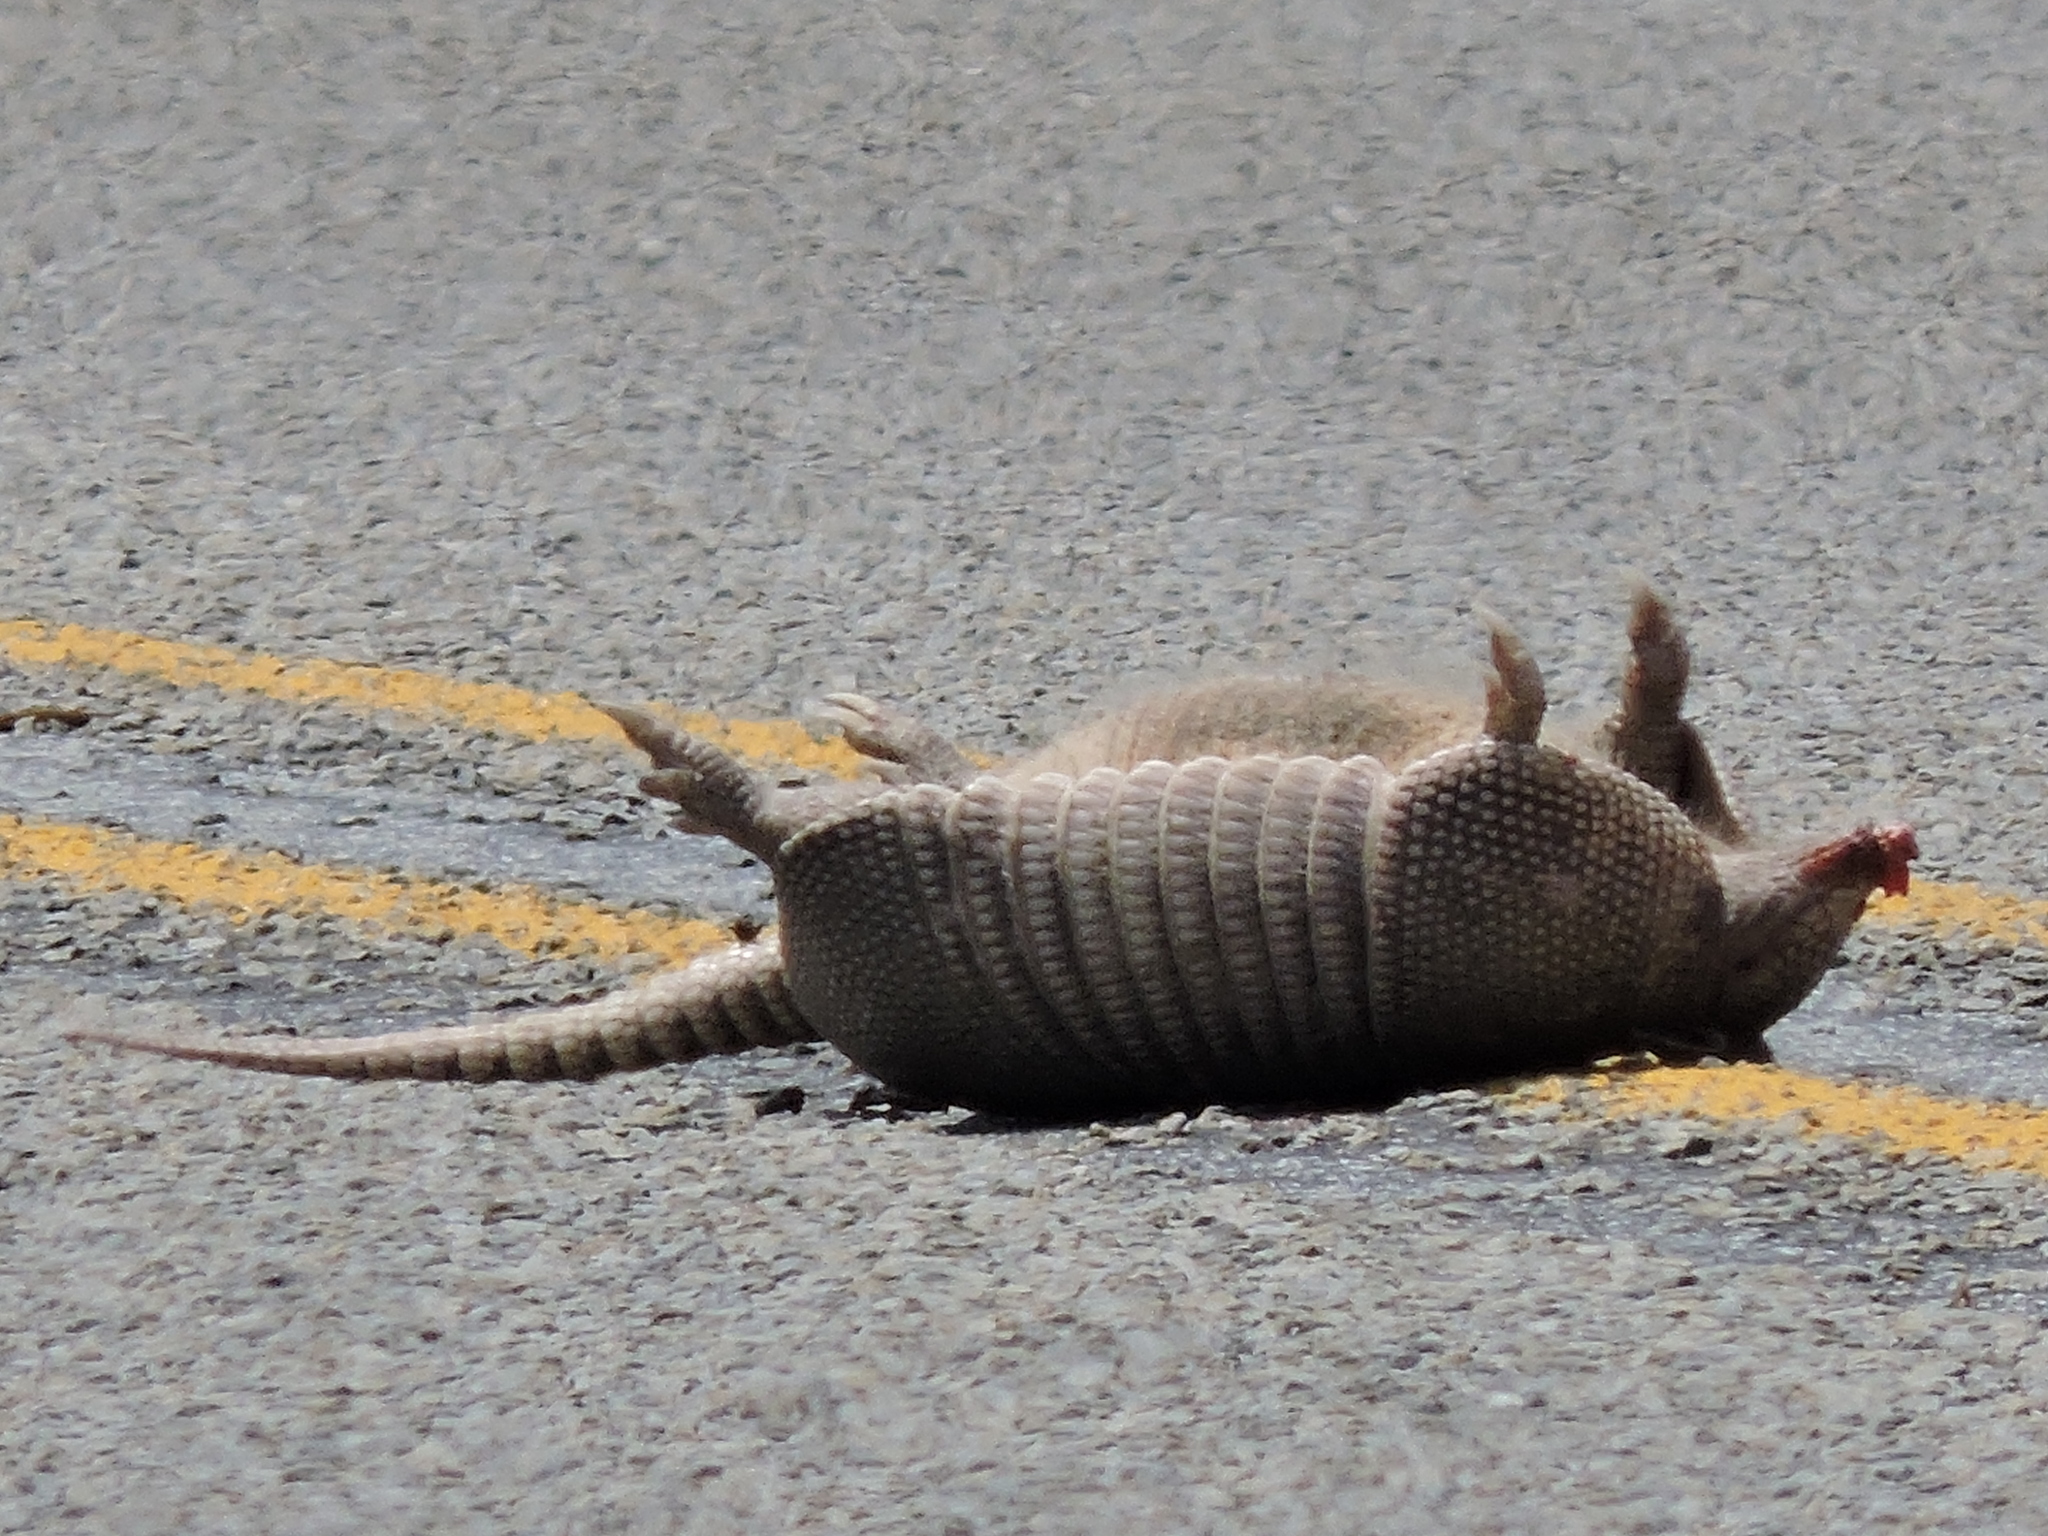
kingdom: Animalia
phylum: Chordata
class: Mammalia
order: Cingulata
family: Dasypodidae
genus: Dasypus
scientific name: Dasypus novemcinctus
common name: Nine-banded armadillo
